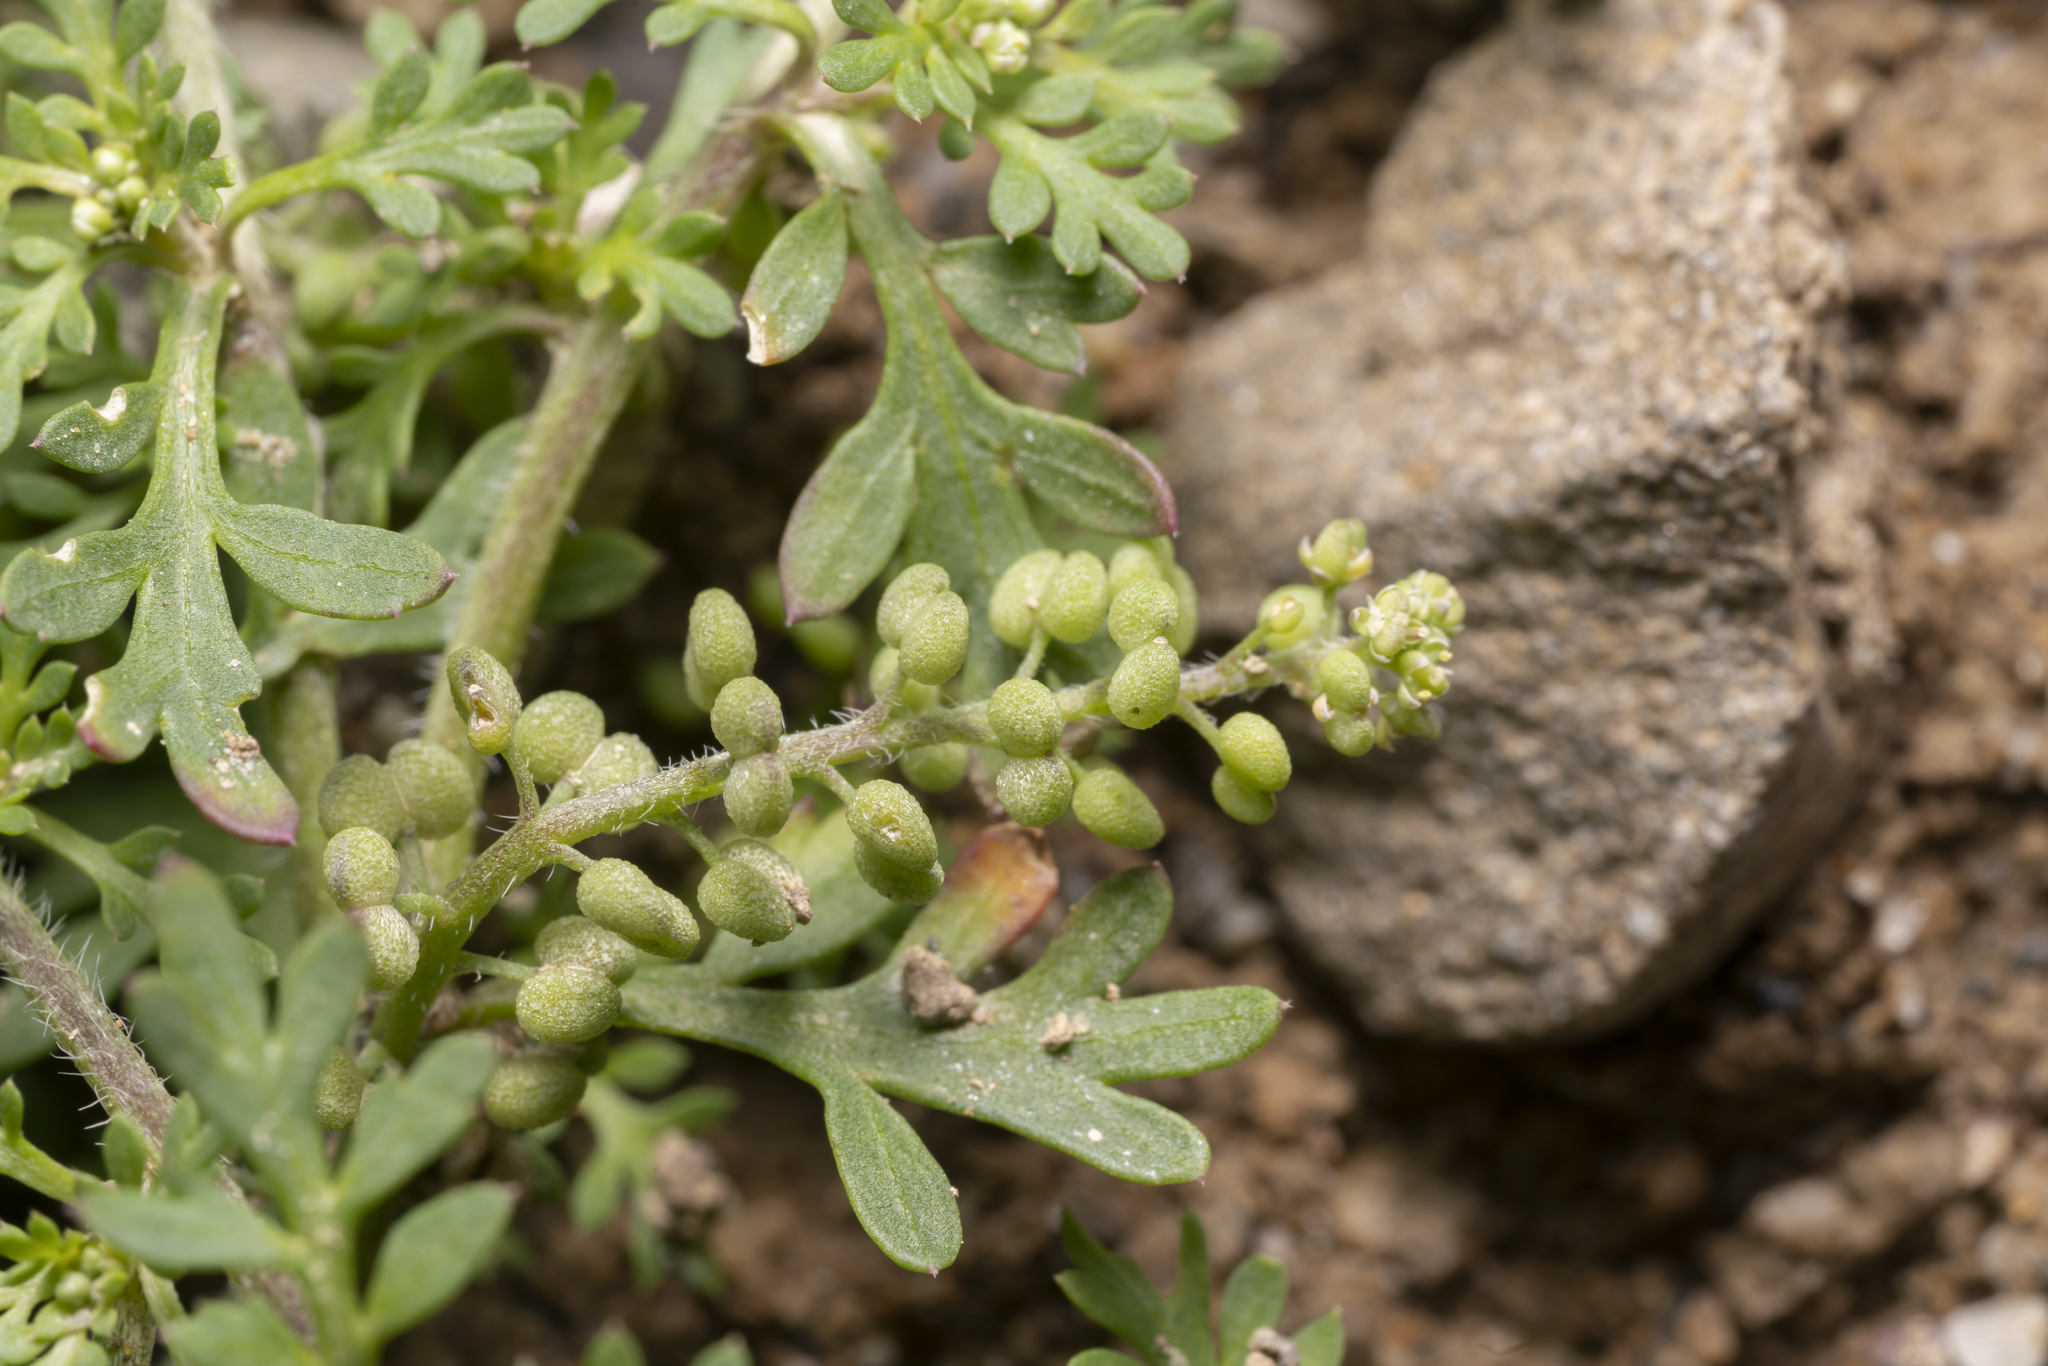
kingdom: Plantae
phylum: Tracheophyta
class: Magnoliopsida
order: Brassicales
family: Brassicaceae
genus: Lepidium
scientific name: Lepidium didymum
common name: Lesser swinecress
